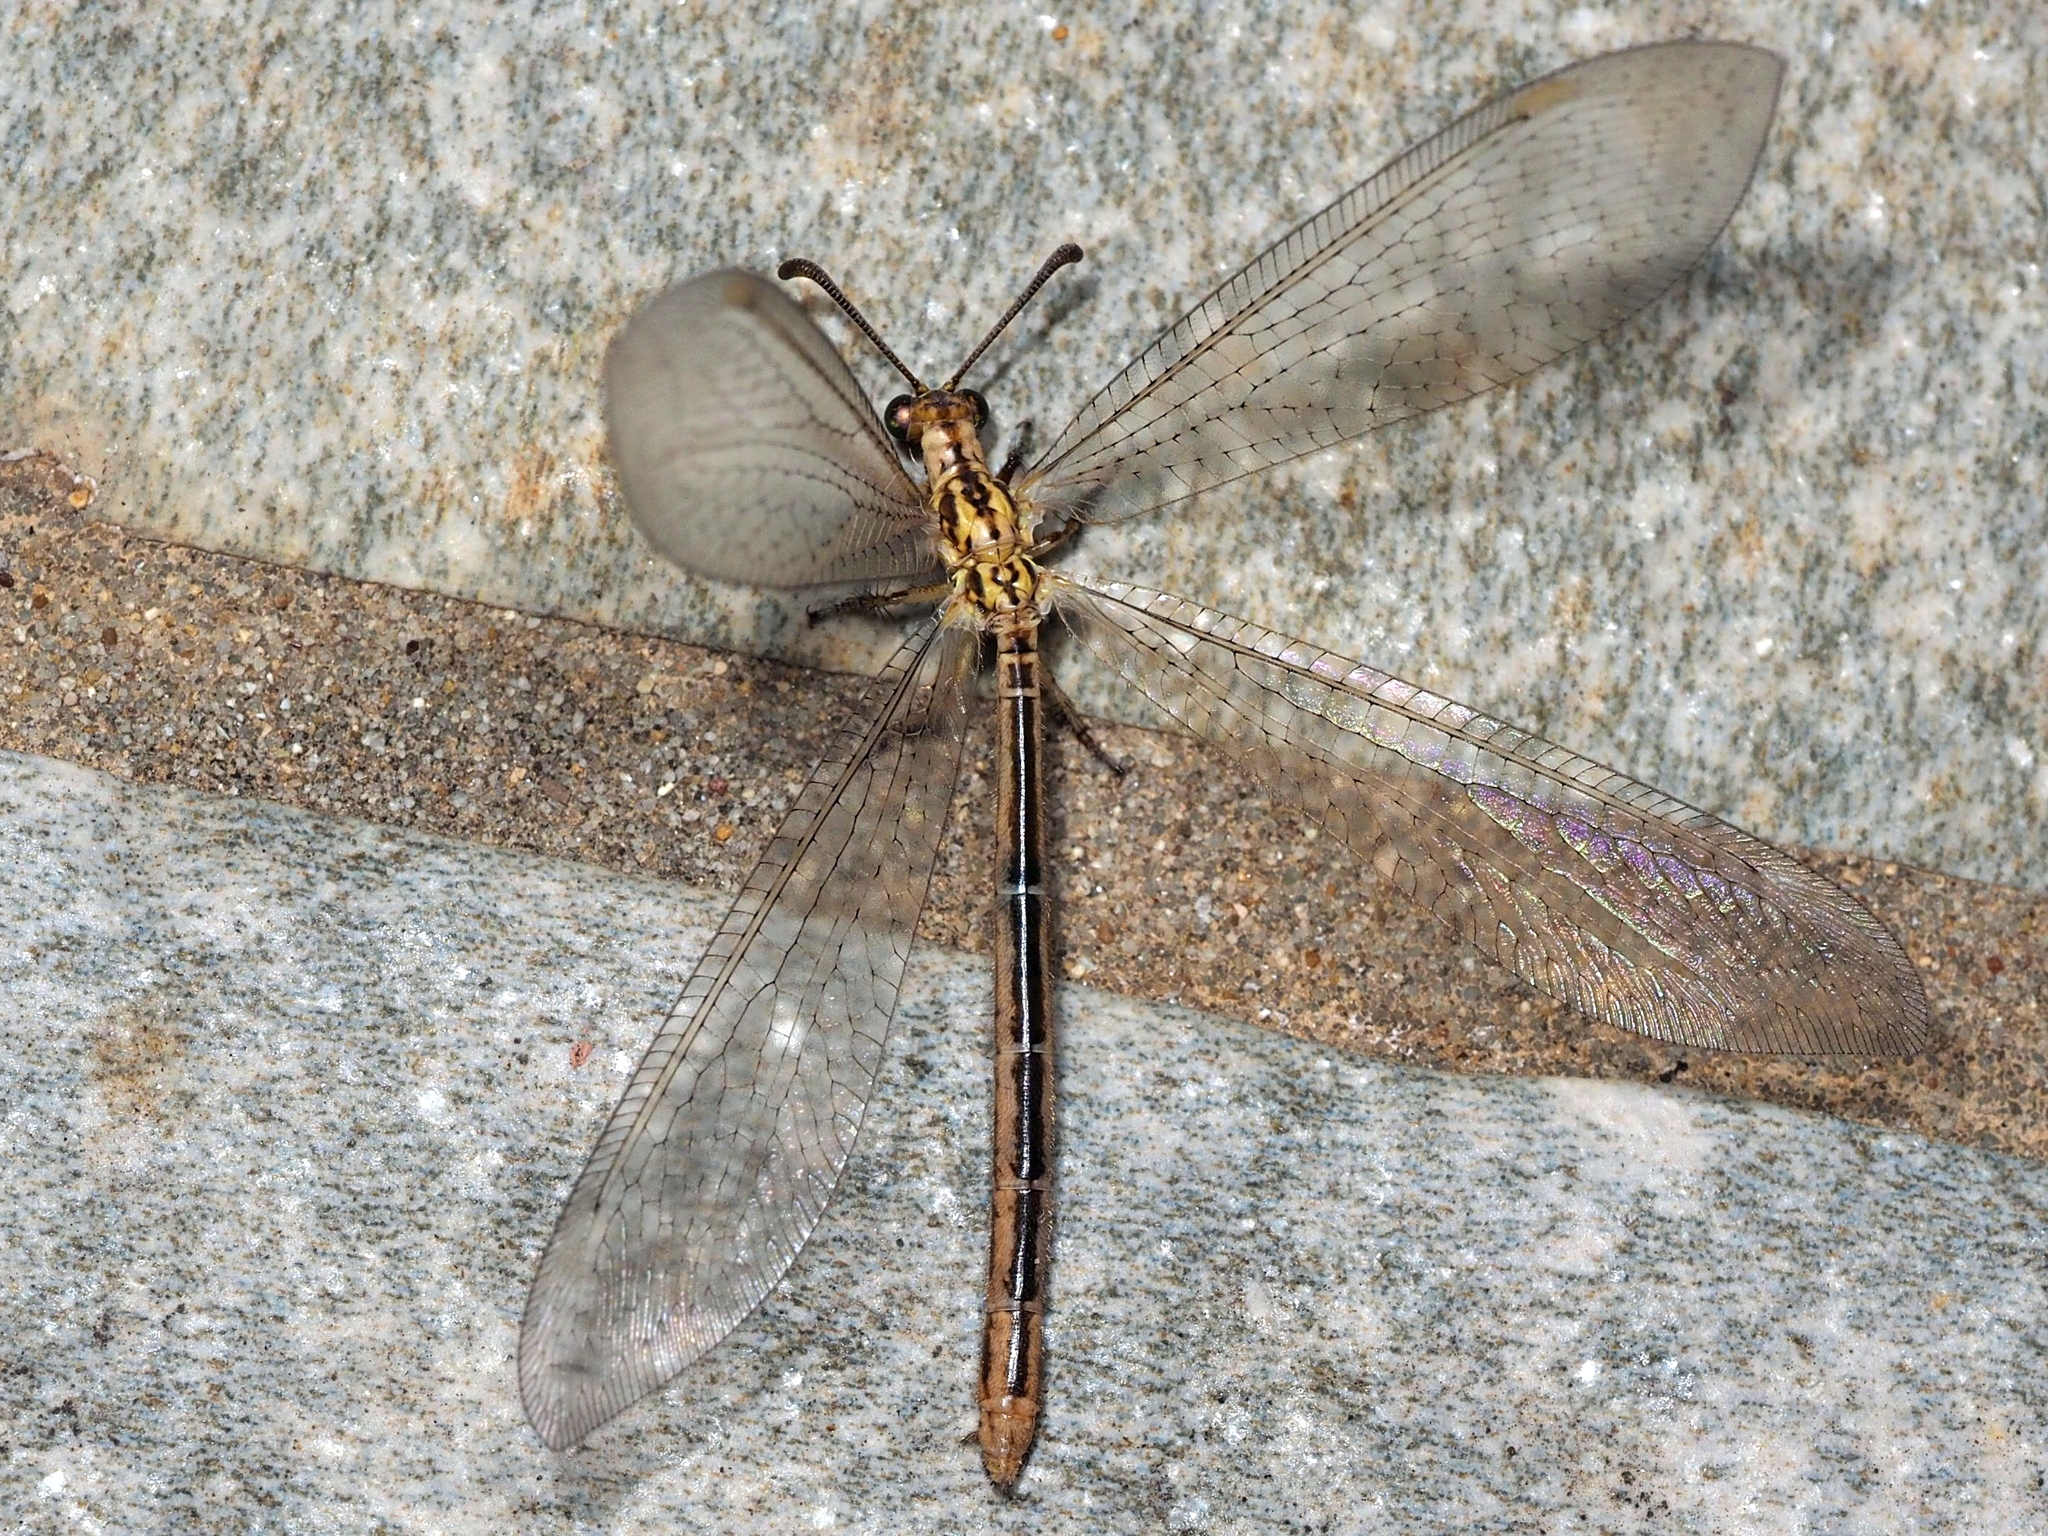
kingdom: Animalia
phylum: Arthropoda
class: Insecta
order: Neuroptera
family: Myrmeleontidae
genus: Macronemurus
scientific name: Macronemurus appendiculatus
